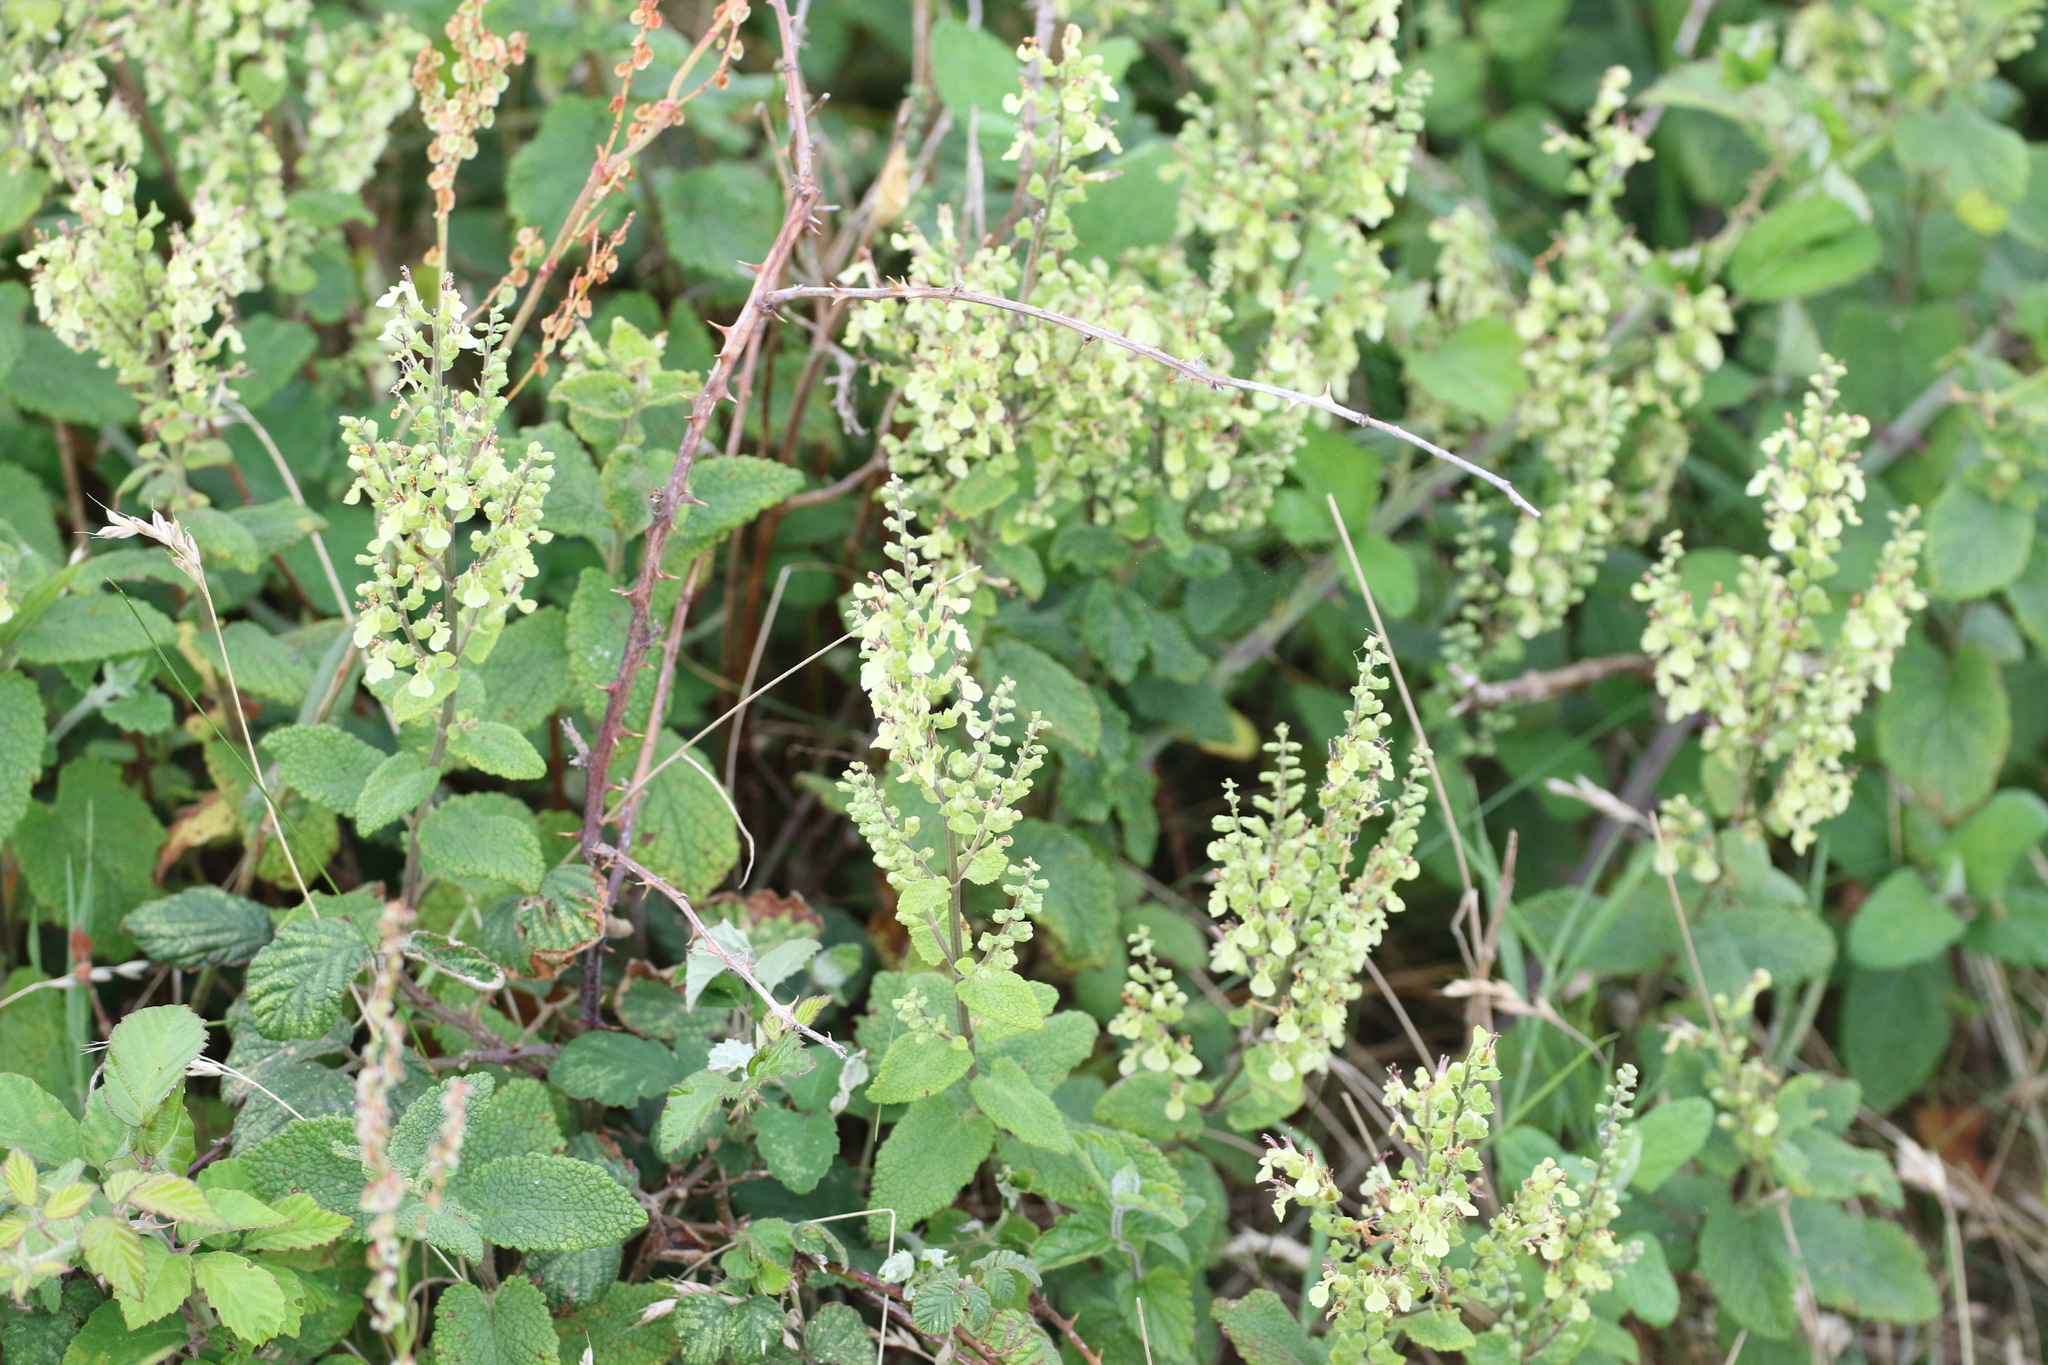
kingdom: Plantae
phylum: Tracheophyta
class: Magnoliopsida
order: Lamiales
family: Lamiaceae
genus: Teucrium
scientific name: Teucrium scorodonia
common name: Woodland germander
